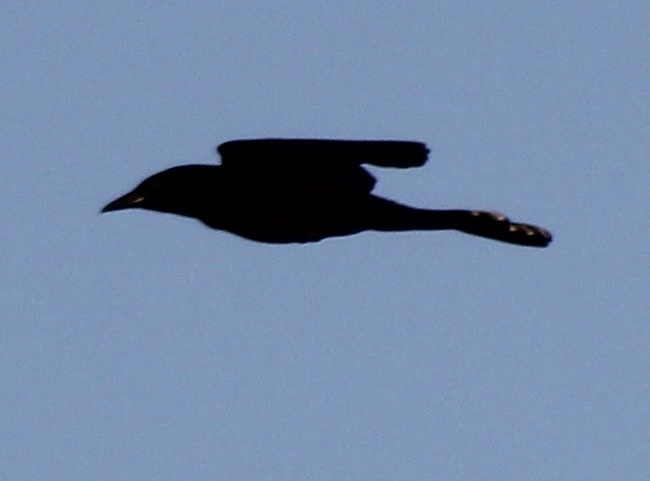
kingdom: Animalia
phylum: Chordata
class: Aves
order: Passeriformes
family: Icteridae
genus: Quiscalus
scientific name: Quiscalus major
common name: Boat-tailed grackle
